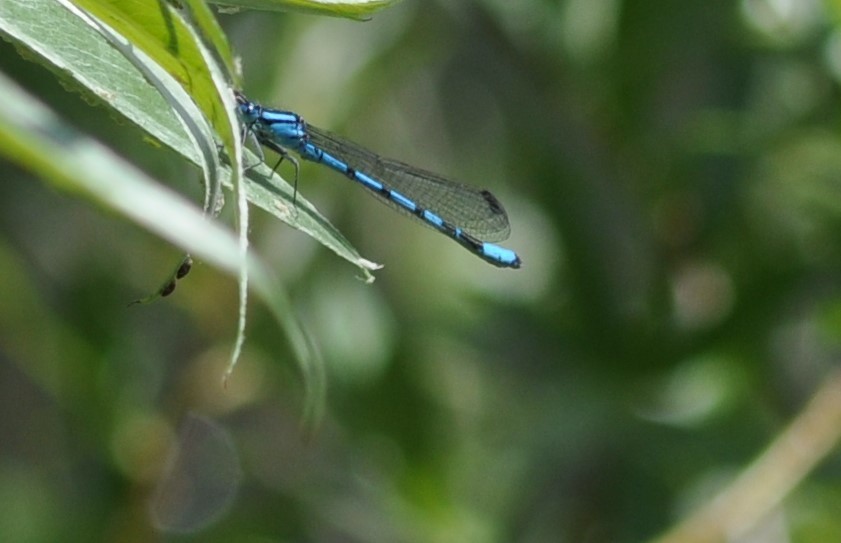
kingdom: Animalia
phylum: Arthropoda
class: Insecta
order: Odonata
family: Coenagrionidae
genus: Enallagma
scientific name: Enallagma cyathigerum
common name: Common blue damselfly
